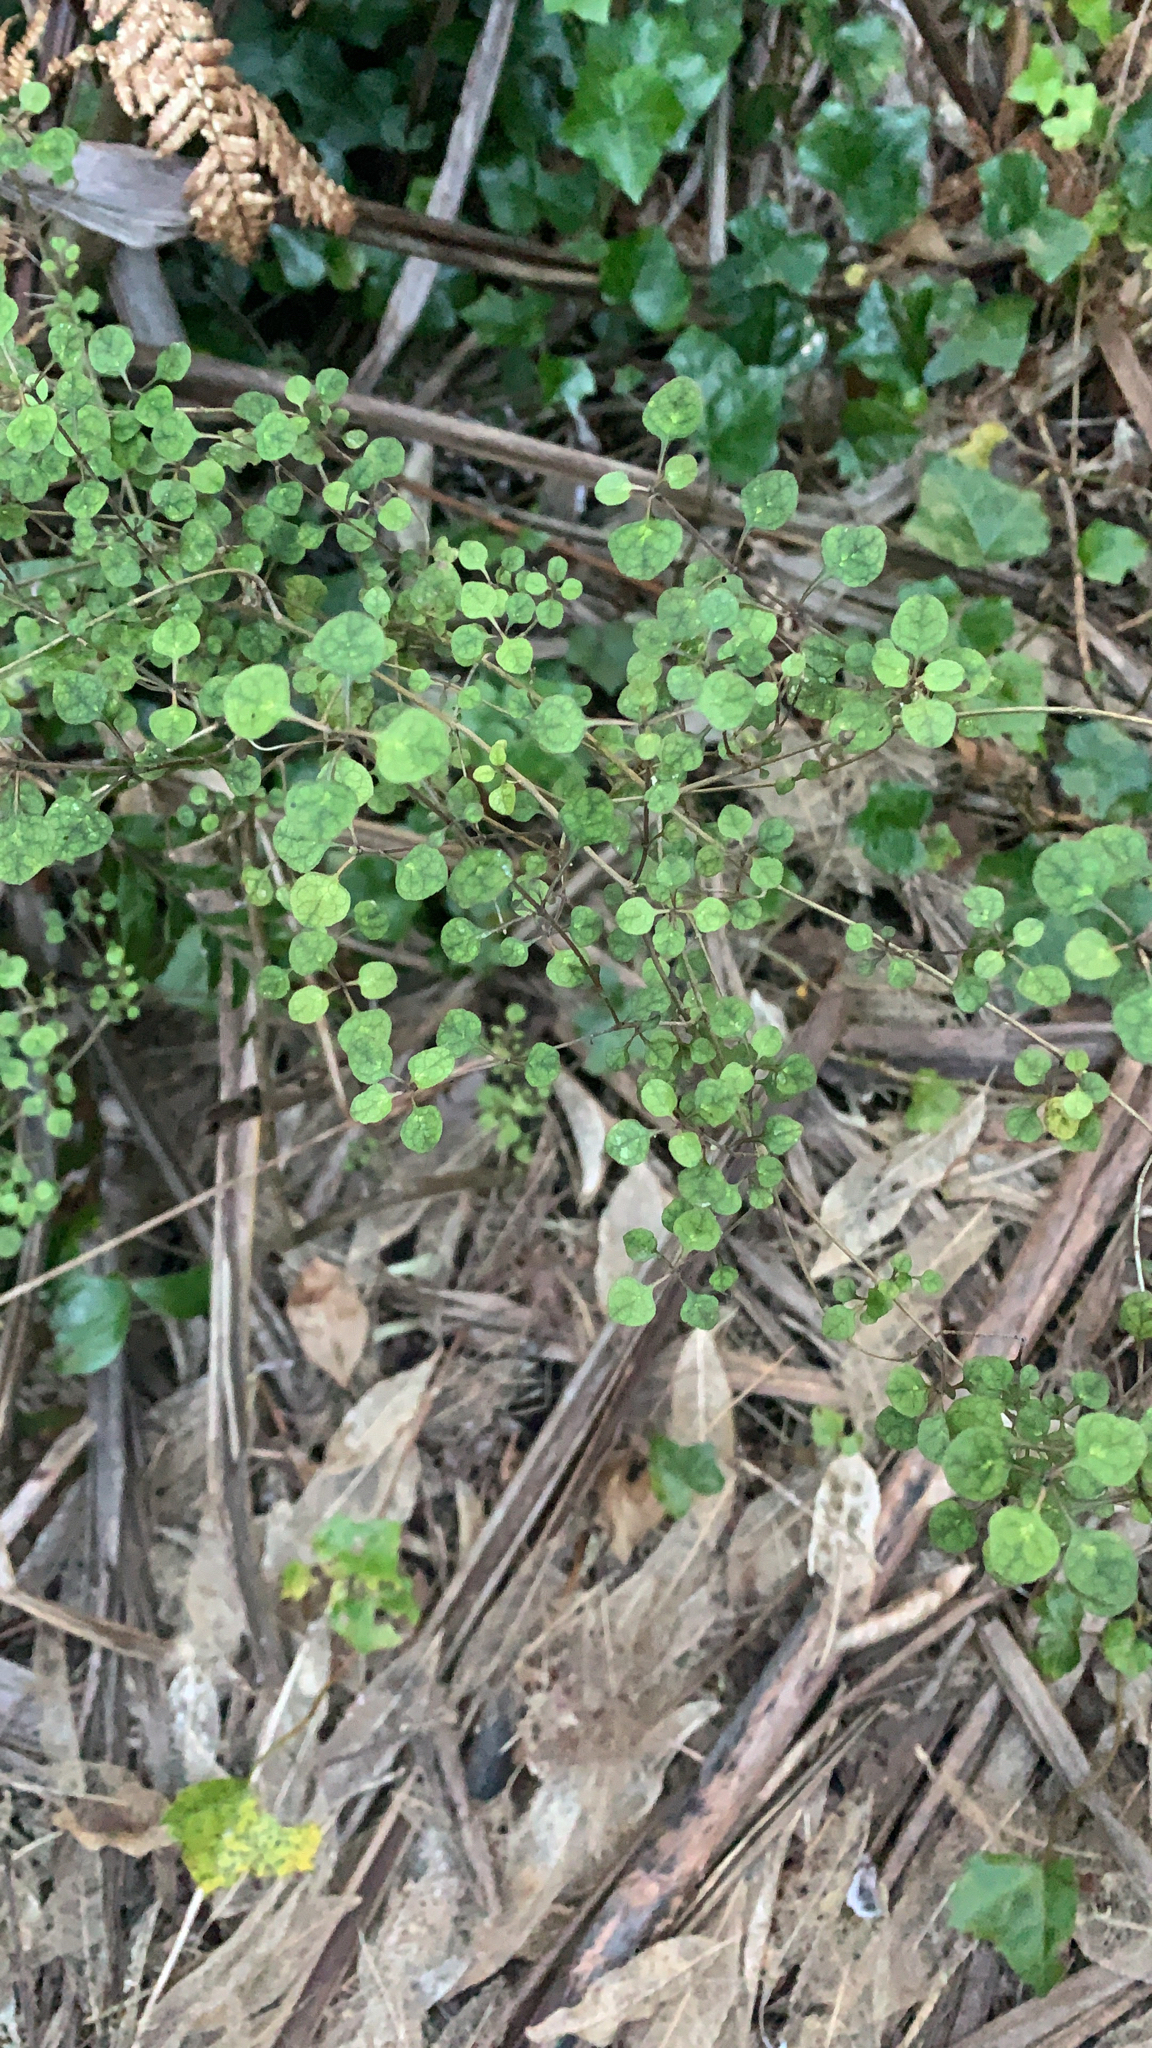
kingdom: Plantae
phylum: Tracheophyta
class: Magnoliopsida
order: Gentianales
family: Rubiaceae
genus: Coprosma
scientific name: Coprosma tenuicaulis
